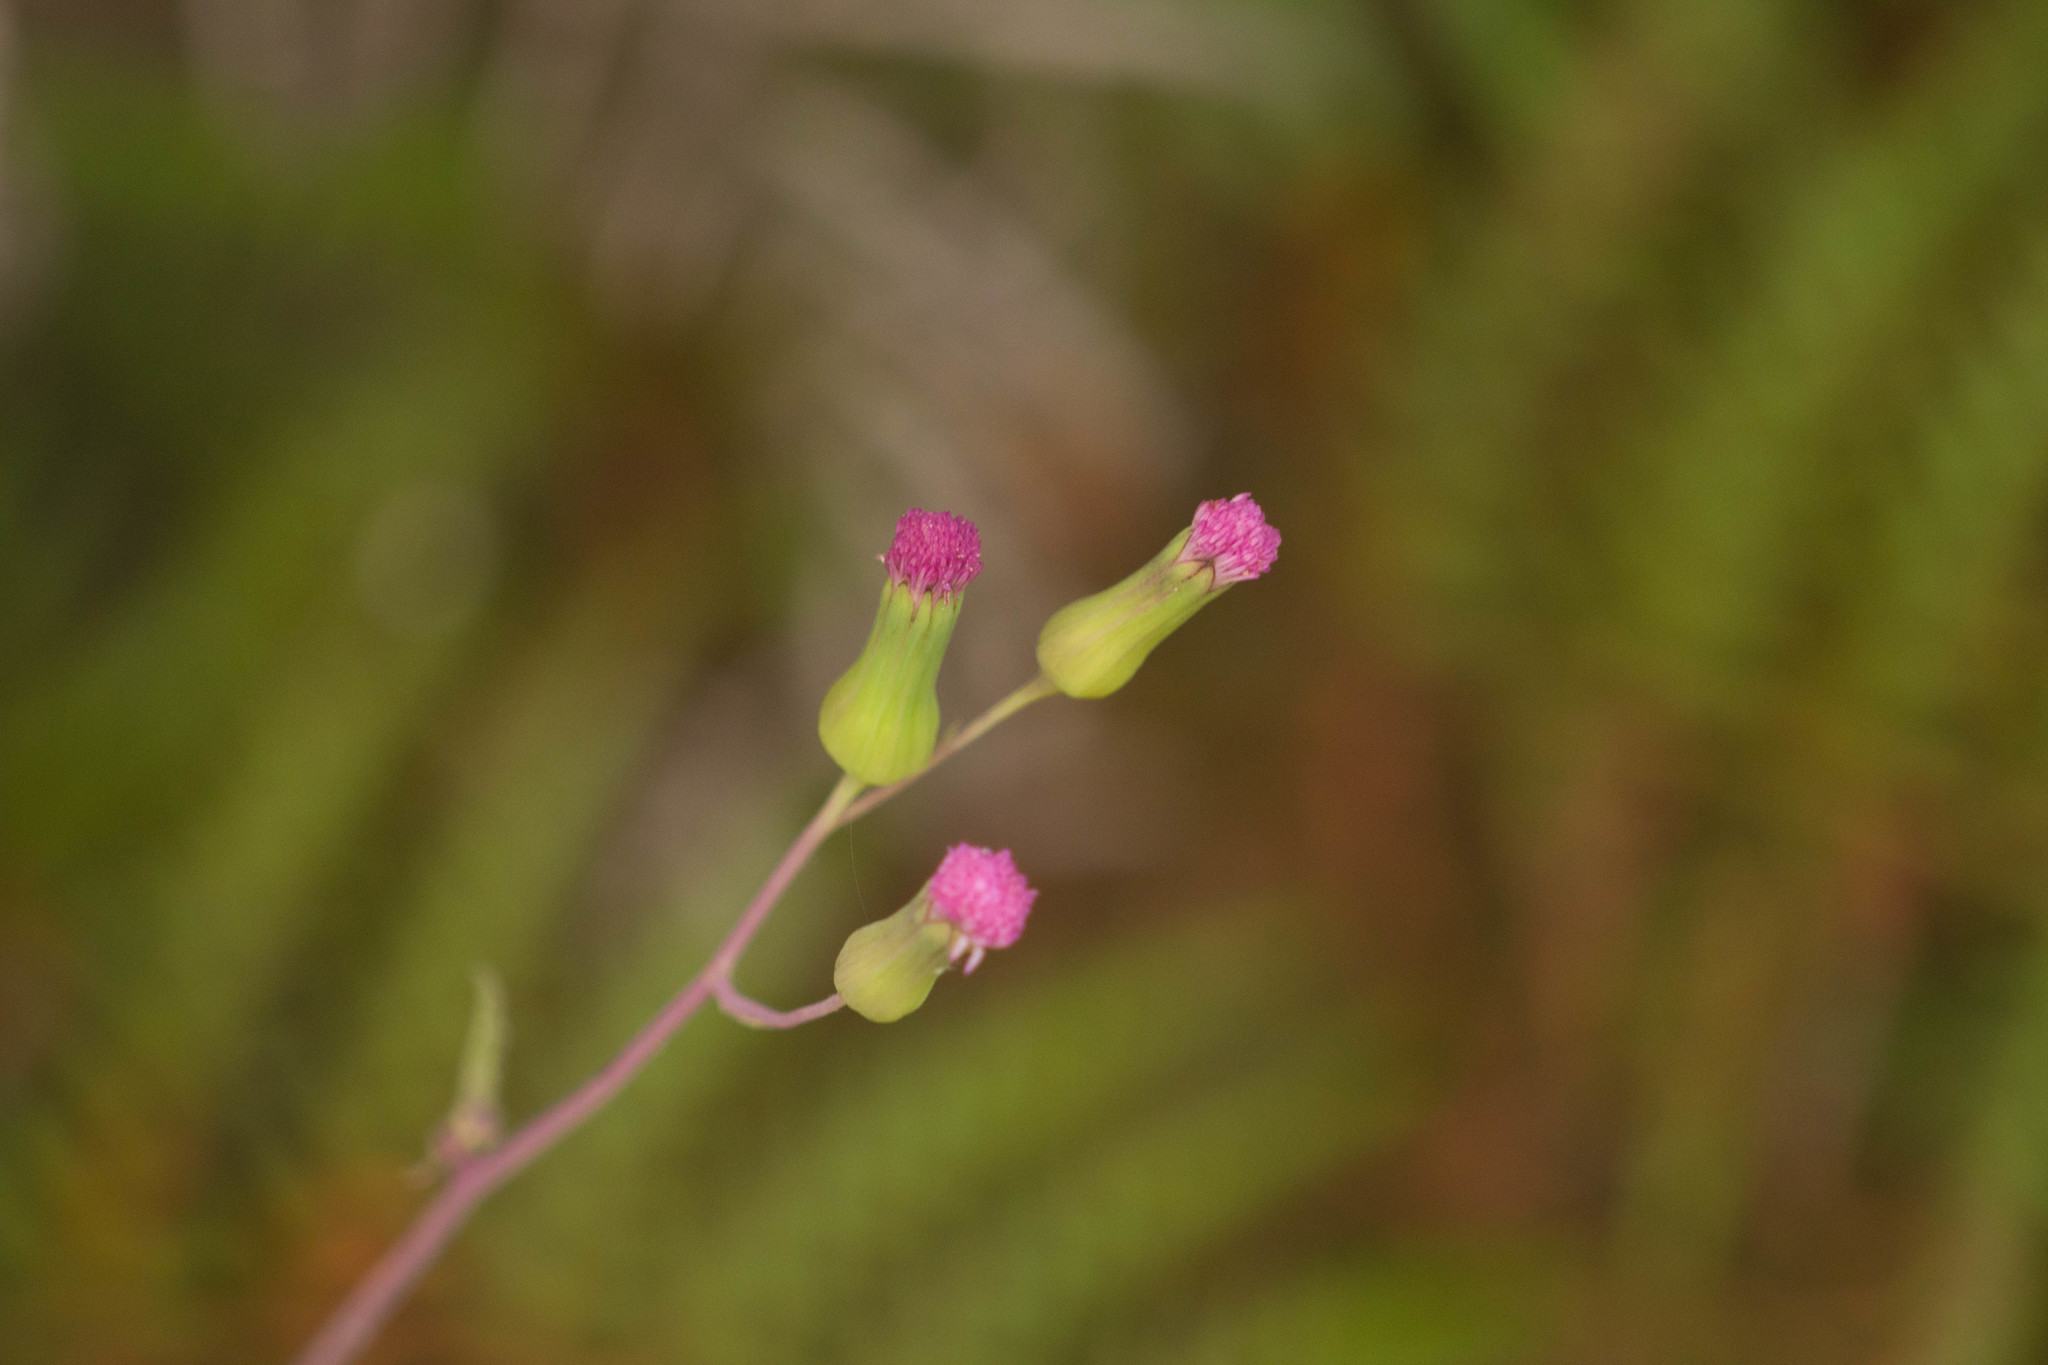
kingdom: Plantae
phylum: Tracheophyta
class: Magnoliopsida
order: Asterales
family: Asteraceae
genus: Emilia
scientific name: Emilia sonchifolia
